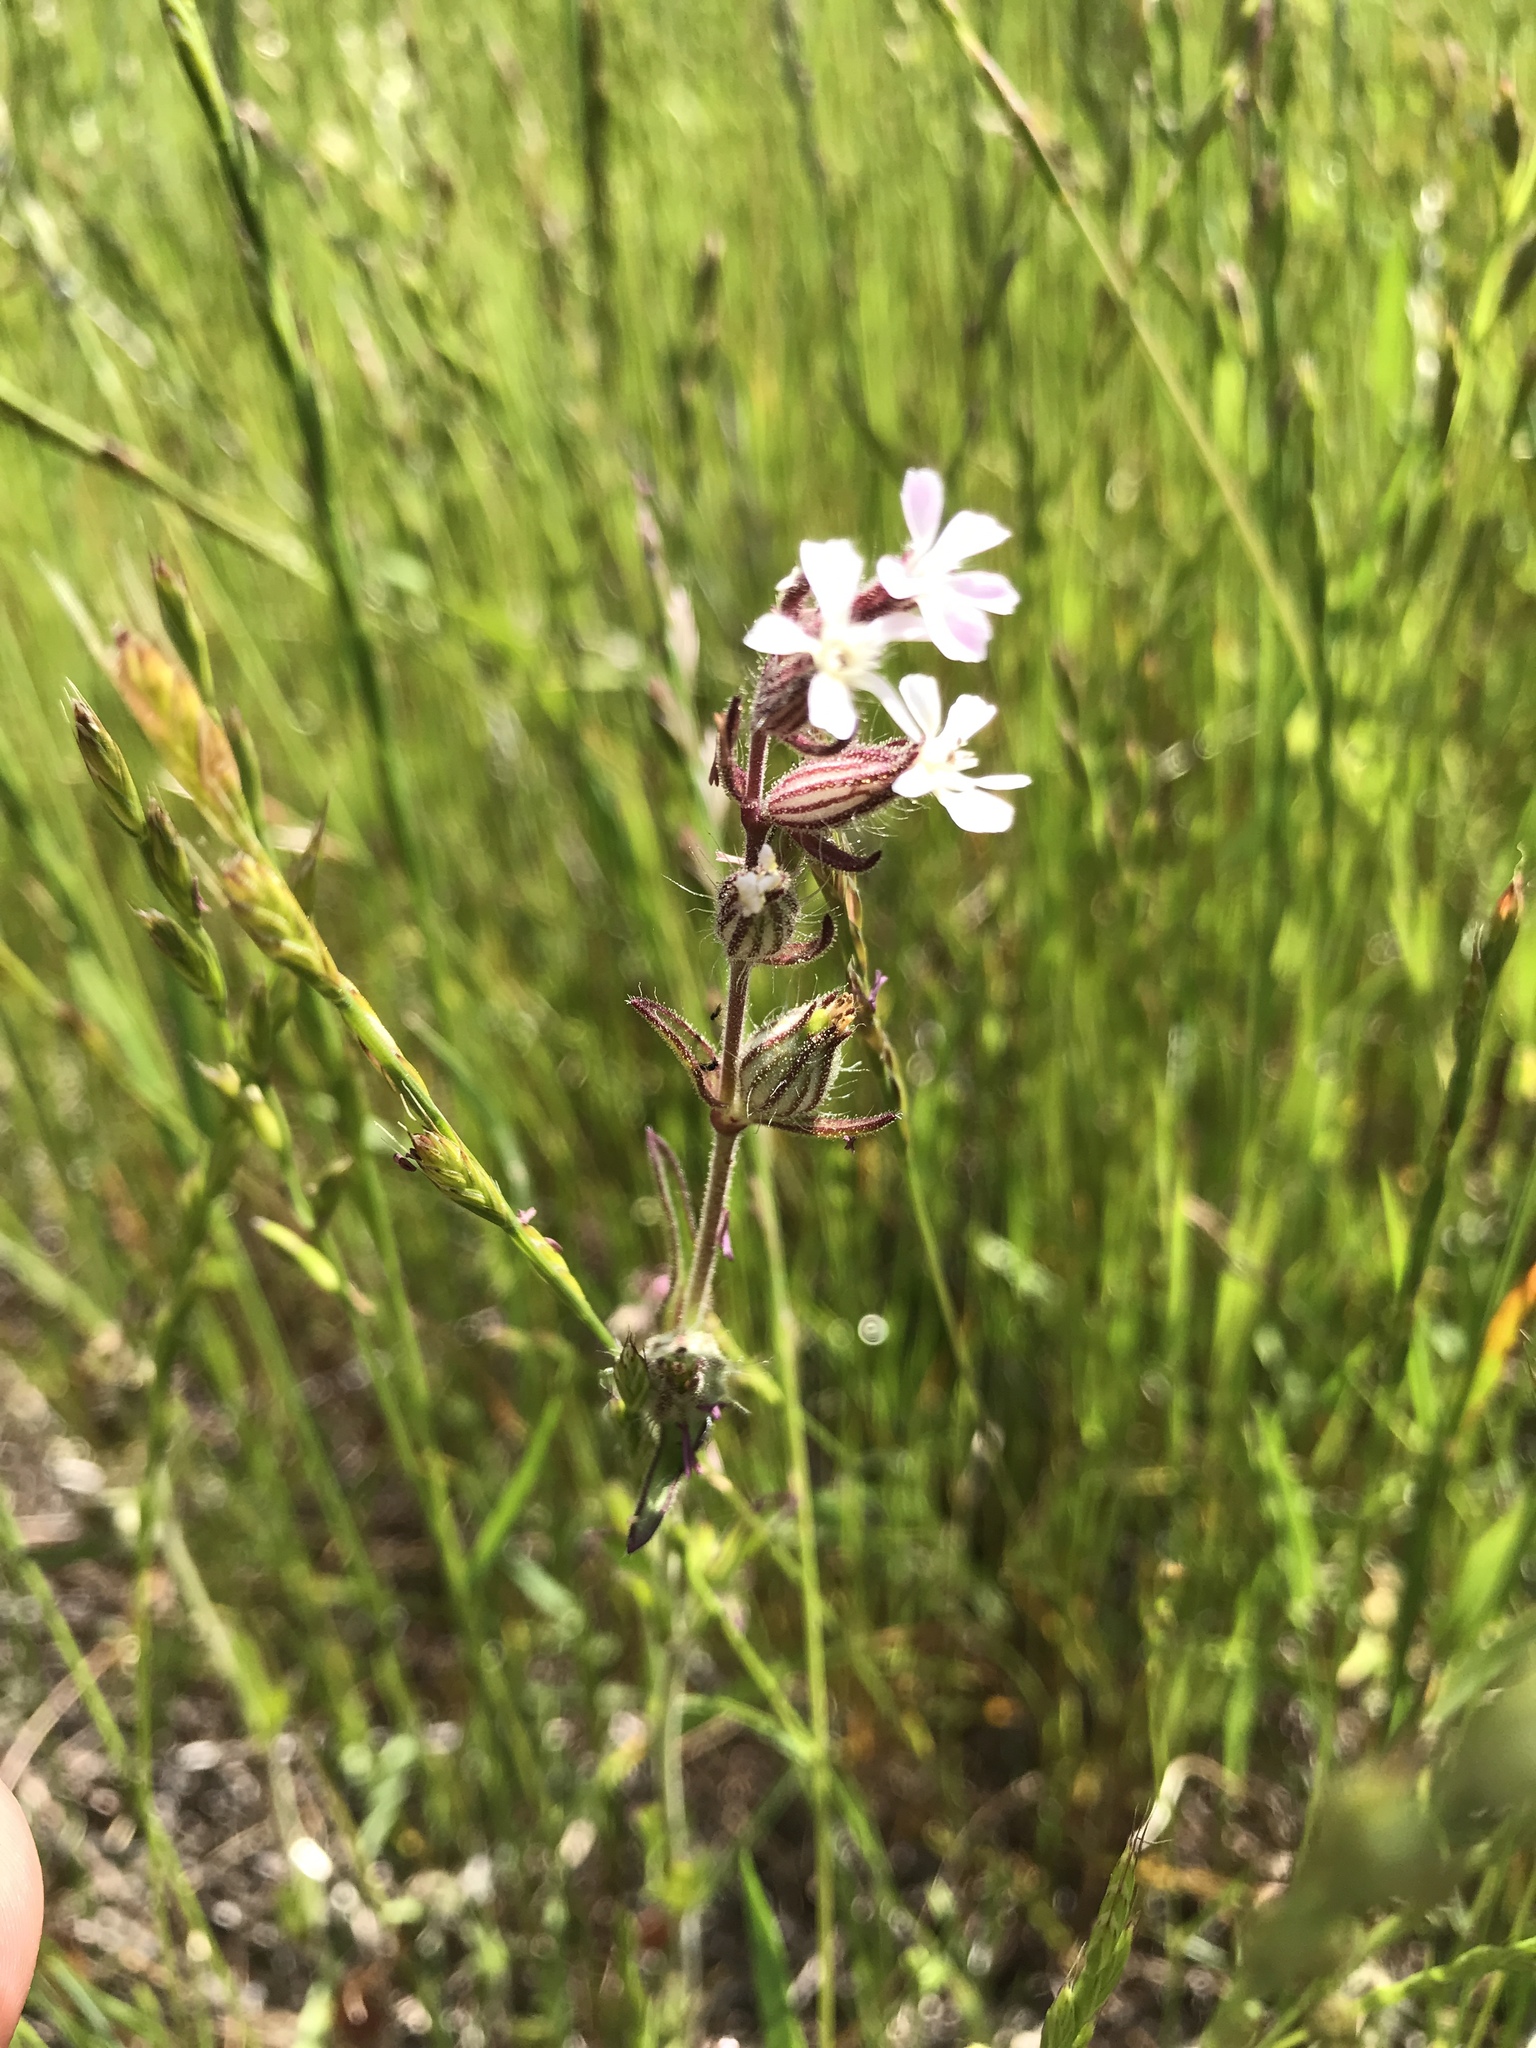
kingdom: Plantae
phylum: Tracheophyta
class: Magnoliopsida
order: Caryophyllales
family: Caryophyllaceae
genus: Silene
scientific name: Silene gallica
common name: Small-flowered catchfly
